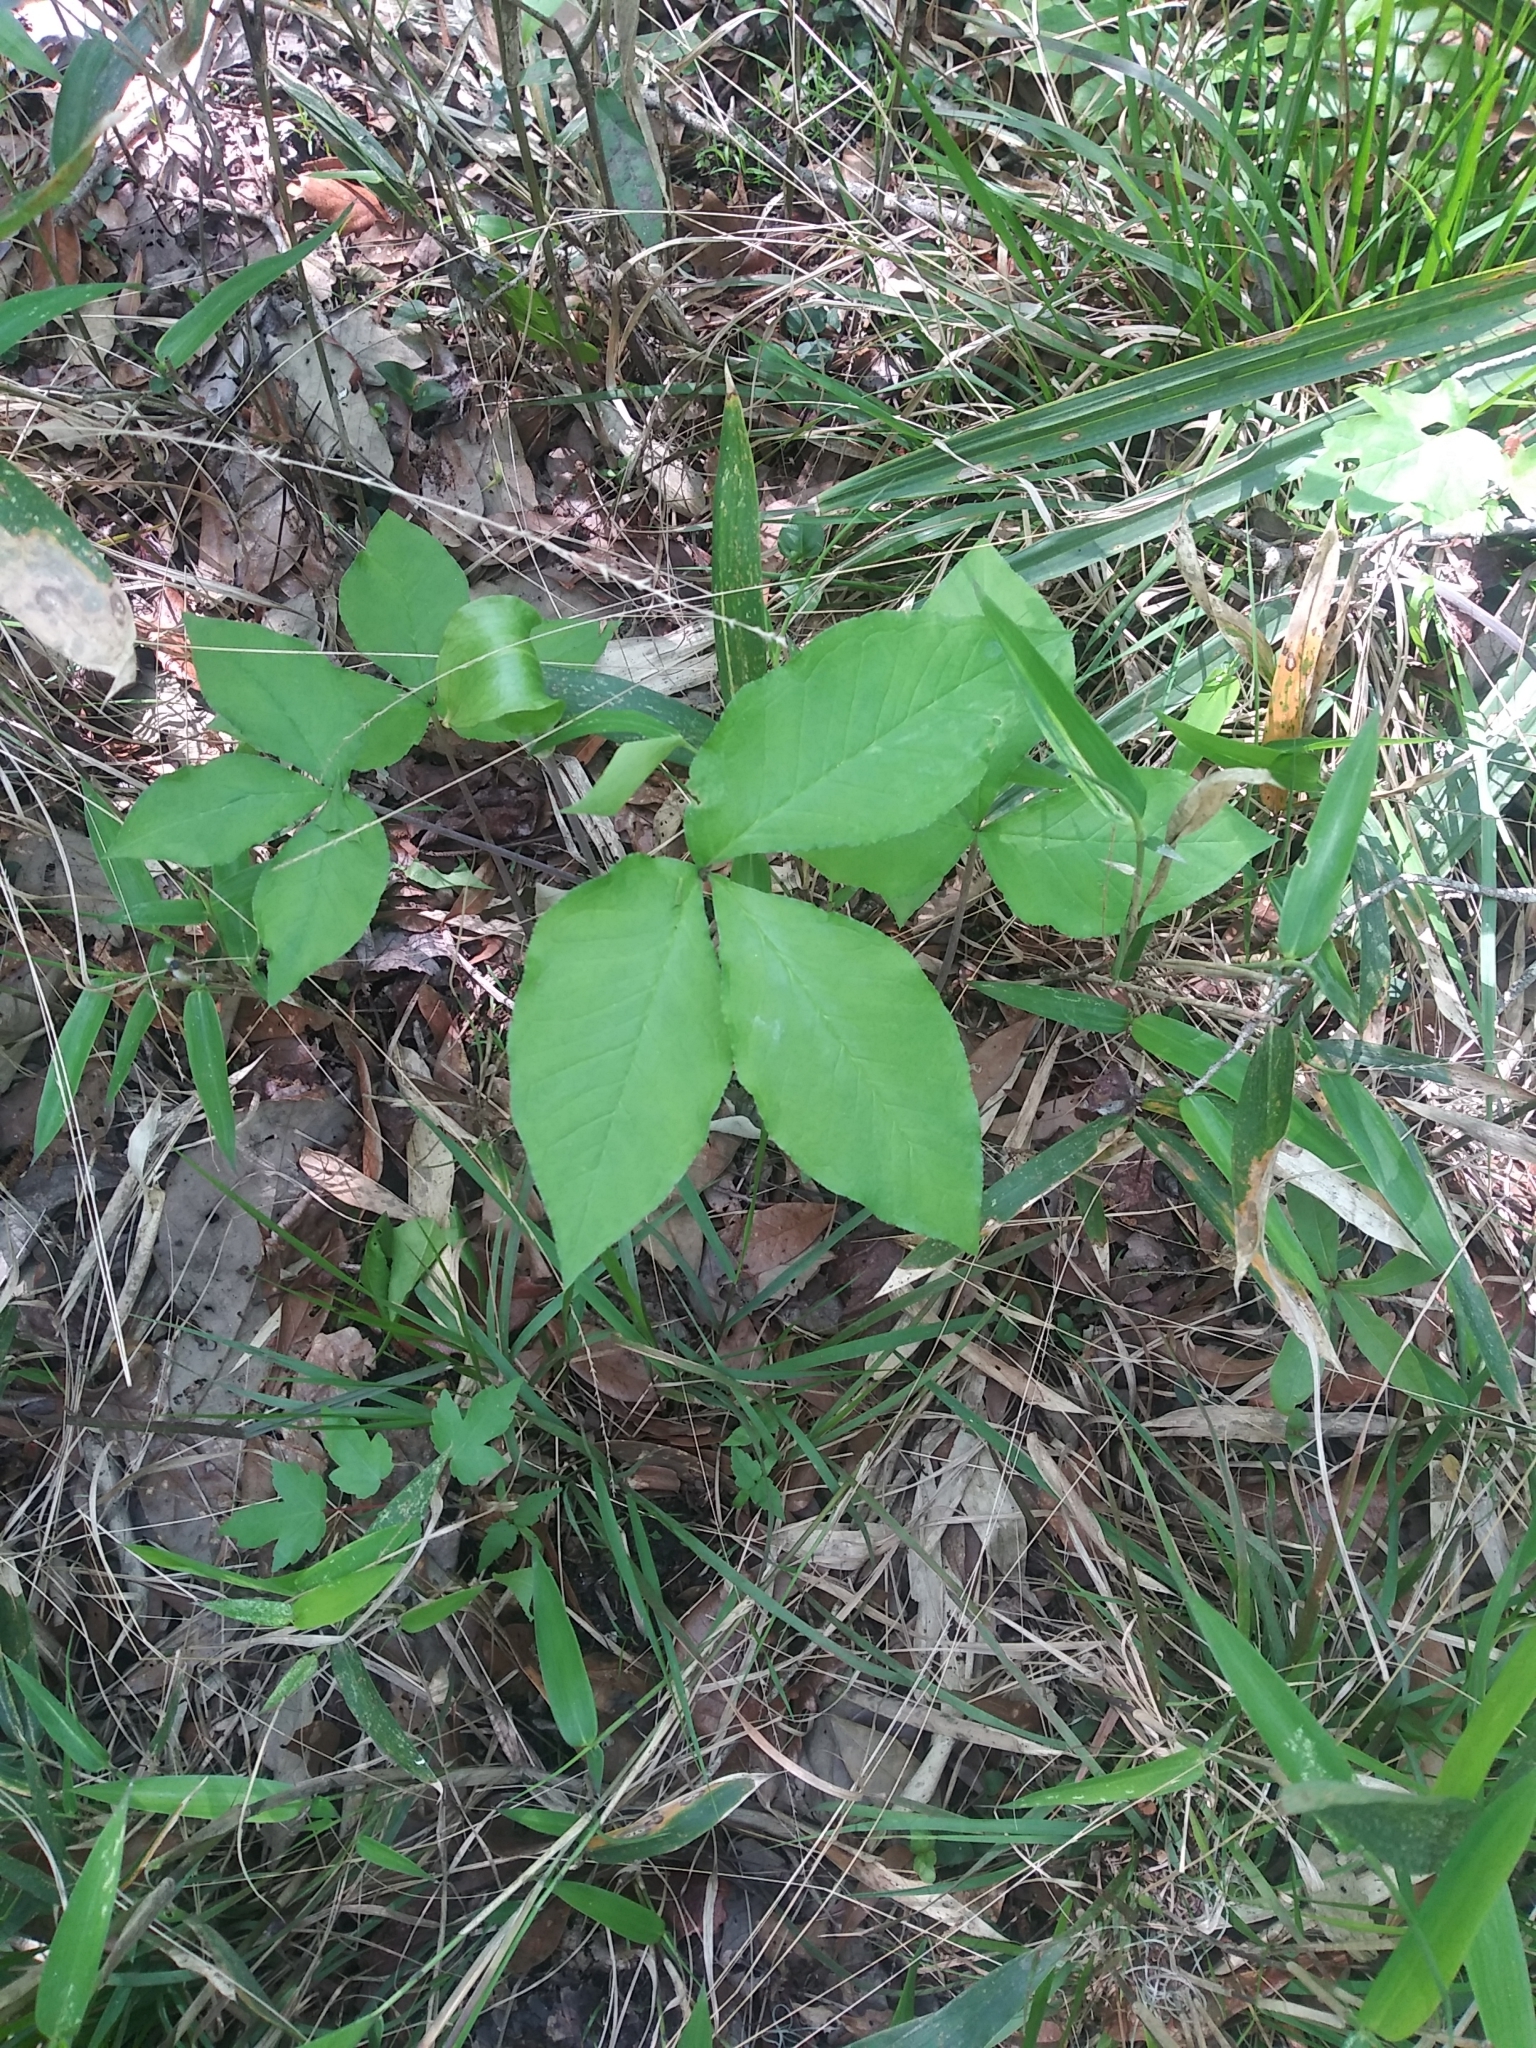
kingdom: Plantae
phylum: Tracheophyta
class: Liliopsida
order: Alismatales
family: Araceae
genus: Arisaema
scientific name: Arisaema triphyllum
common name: Jack-in-the-pulpit
